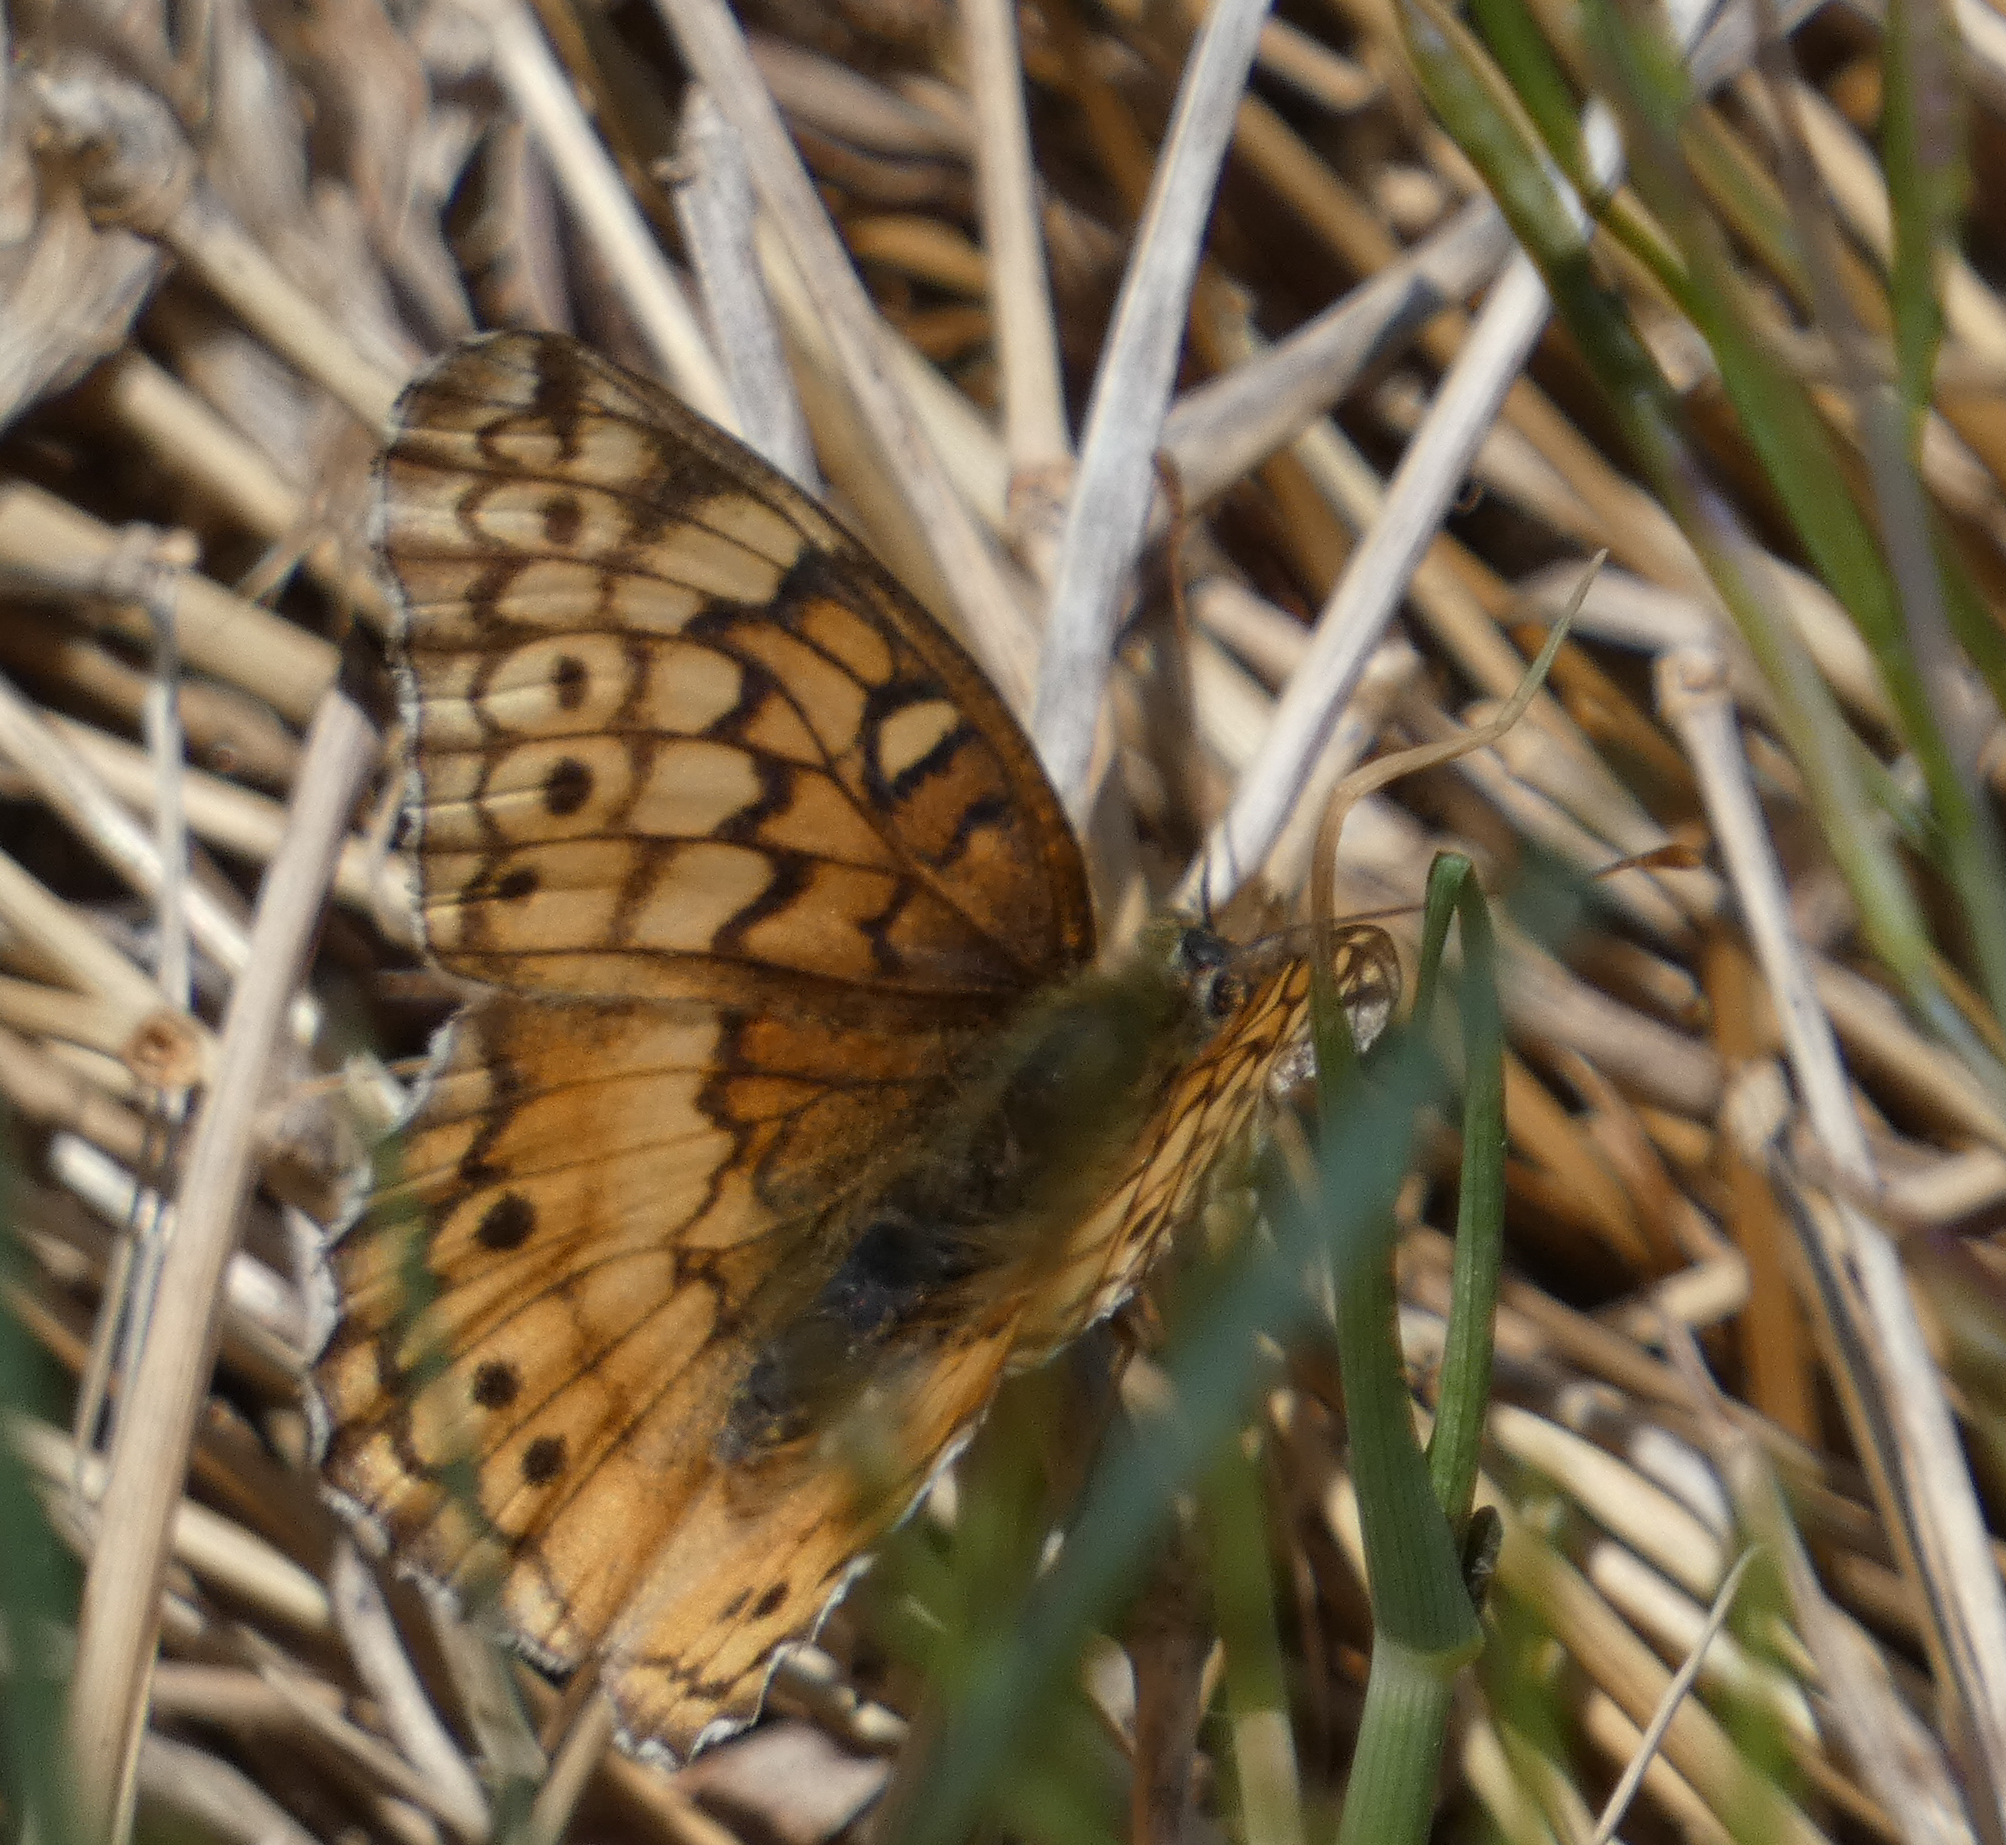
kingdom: Animalia
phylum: Arthropoda
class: Insecta
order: Lepidoptera
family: Nymphalidae
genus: Euptoieta
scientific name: Euptoieta claudia
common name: Variegated fritillary
